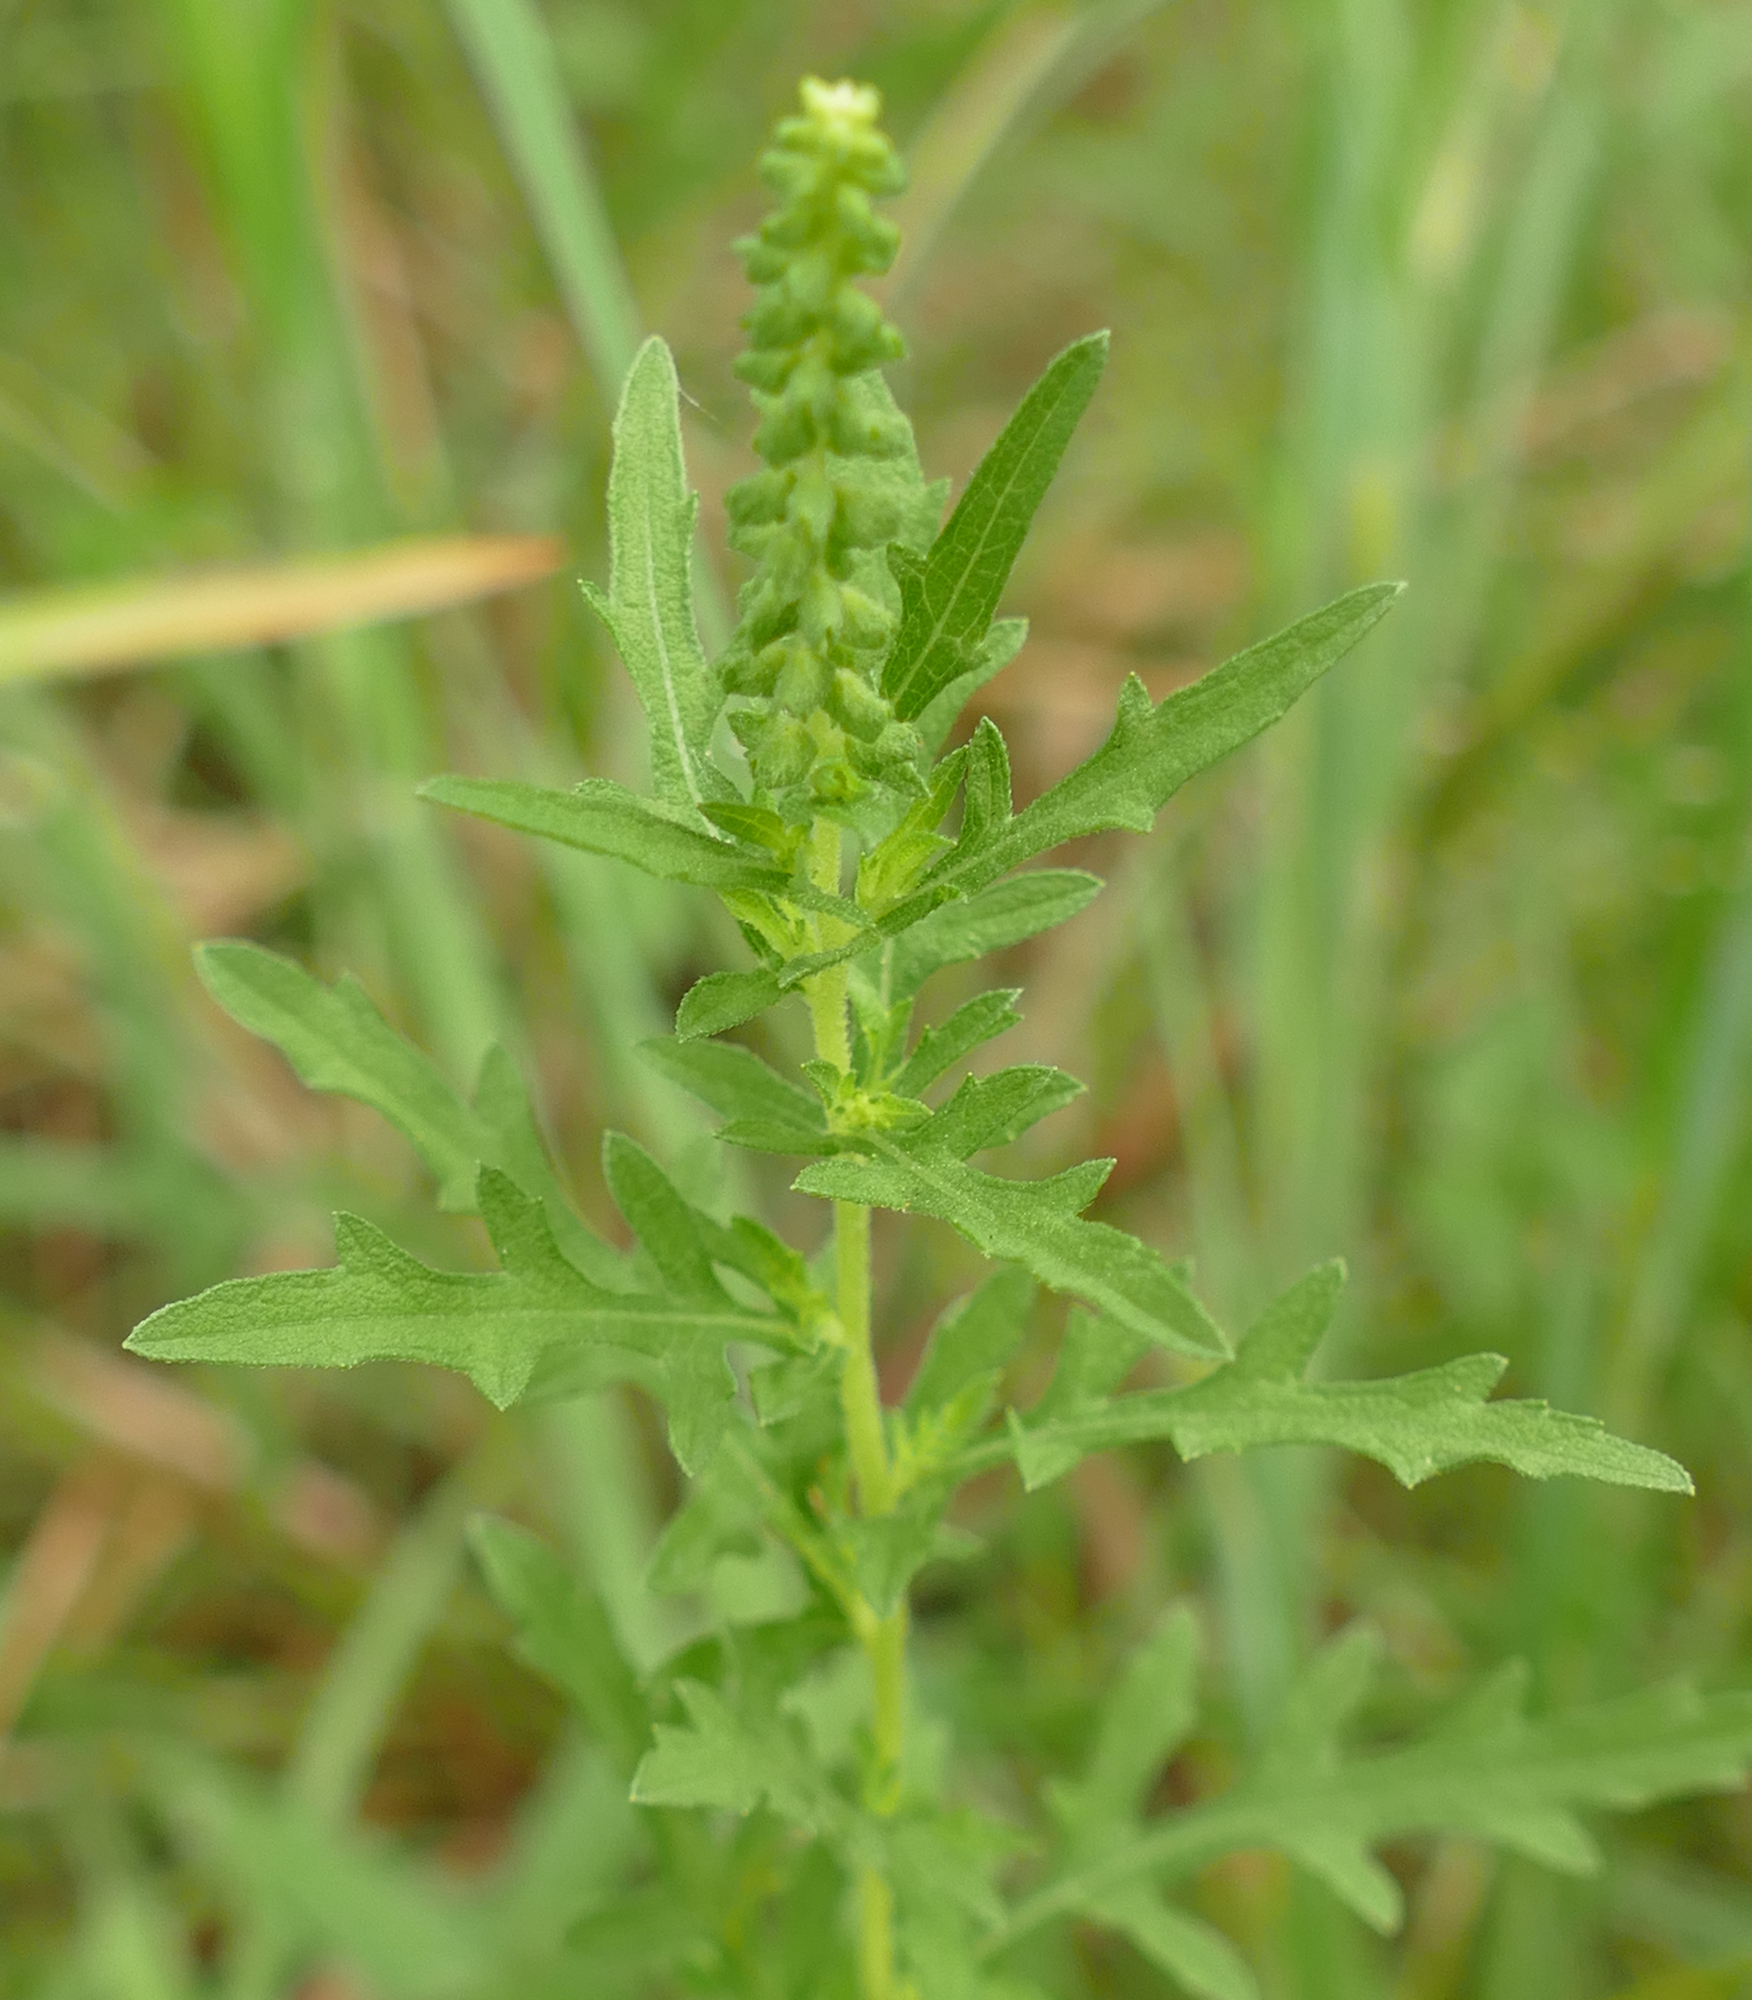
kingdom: Plantae
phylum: Tracheophyta
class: Magnoliopsida
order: Asterales
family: Asteraceae
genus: Ambrosia
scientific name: Ambrosia psilostachya
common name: Perennial ragweed
